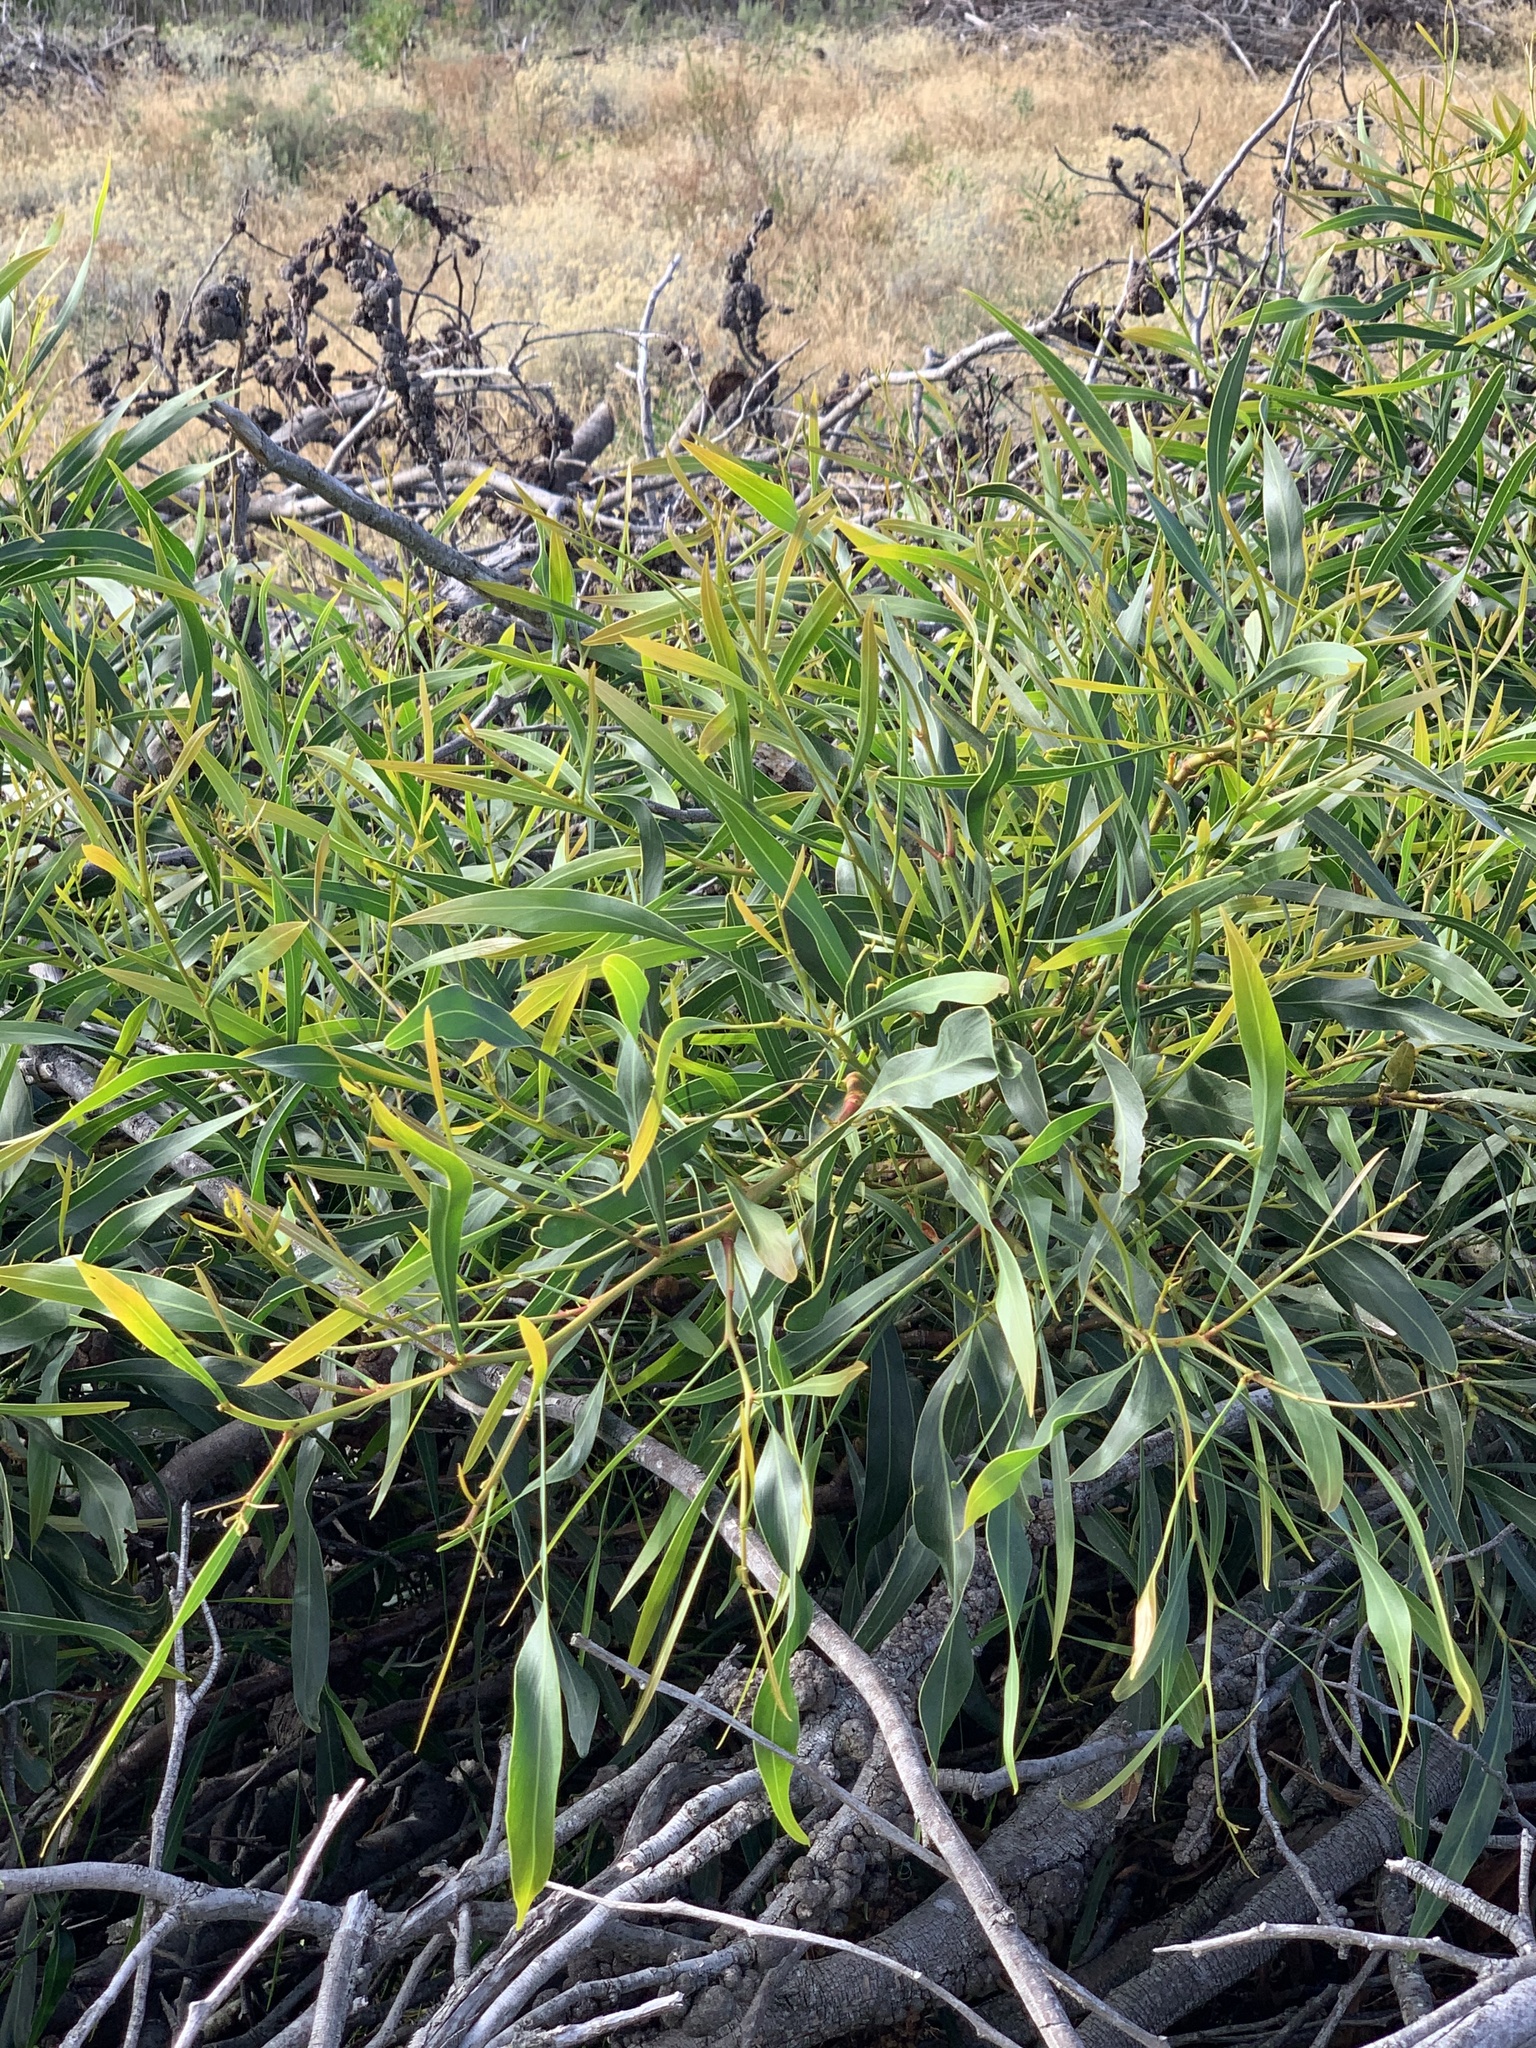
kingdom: Plantae
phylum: Tracheophyta
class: Magnoliopsida
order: Fabales
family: Fabaceae
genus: Acacia
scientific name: Acacia saligna
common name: Orange wattle
